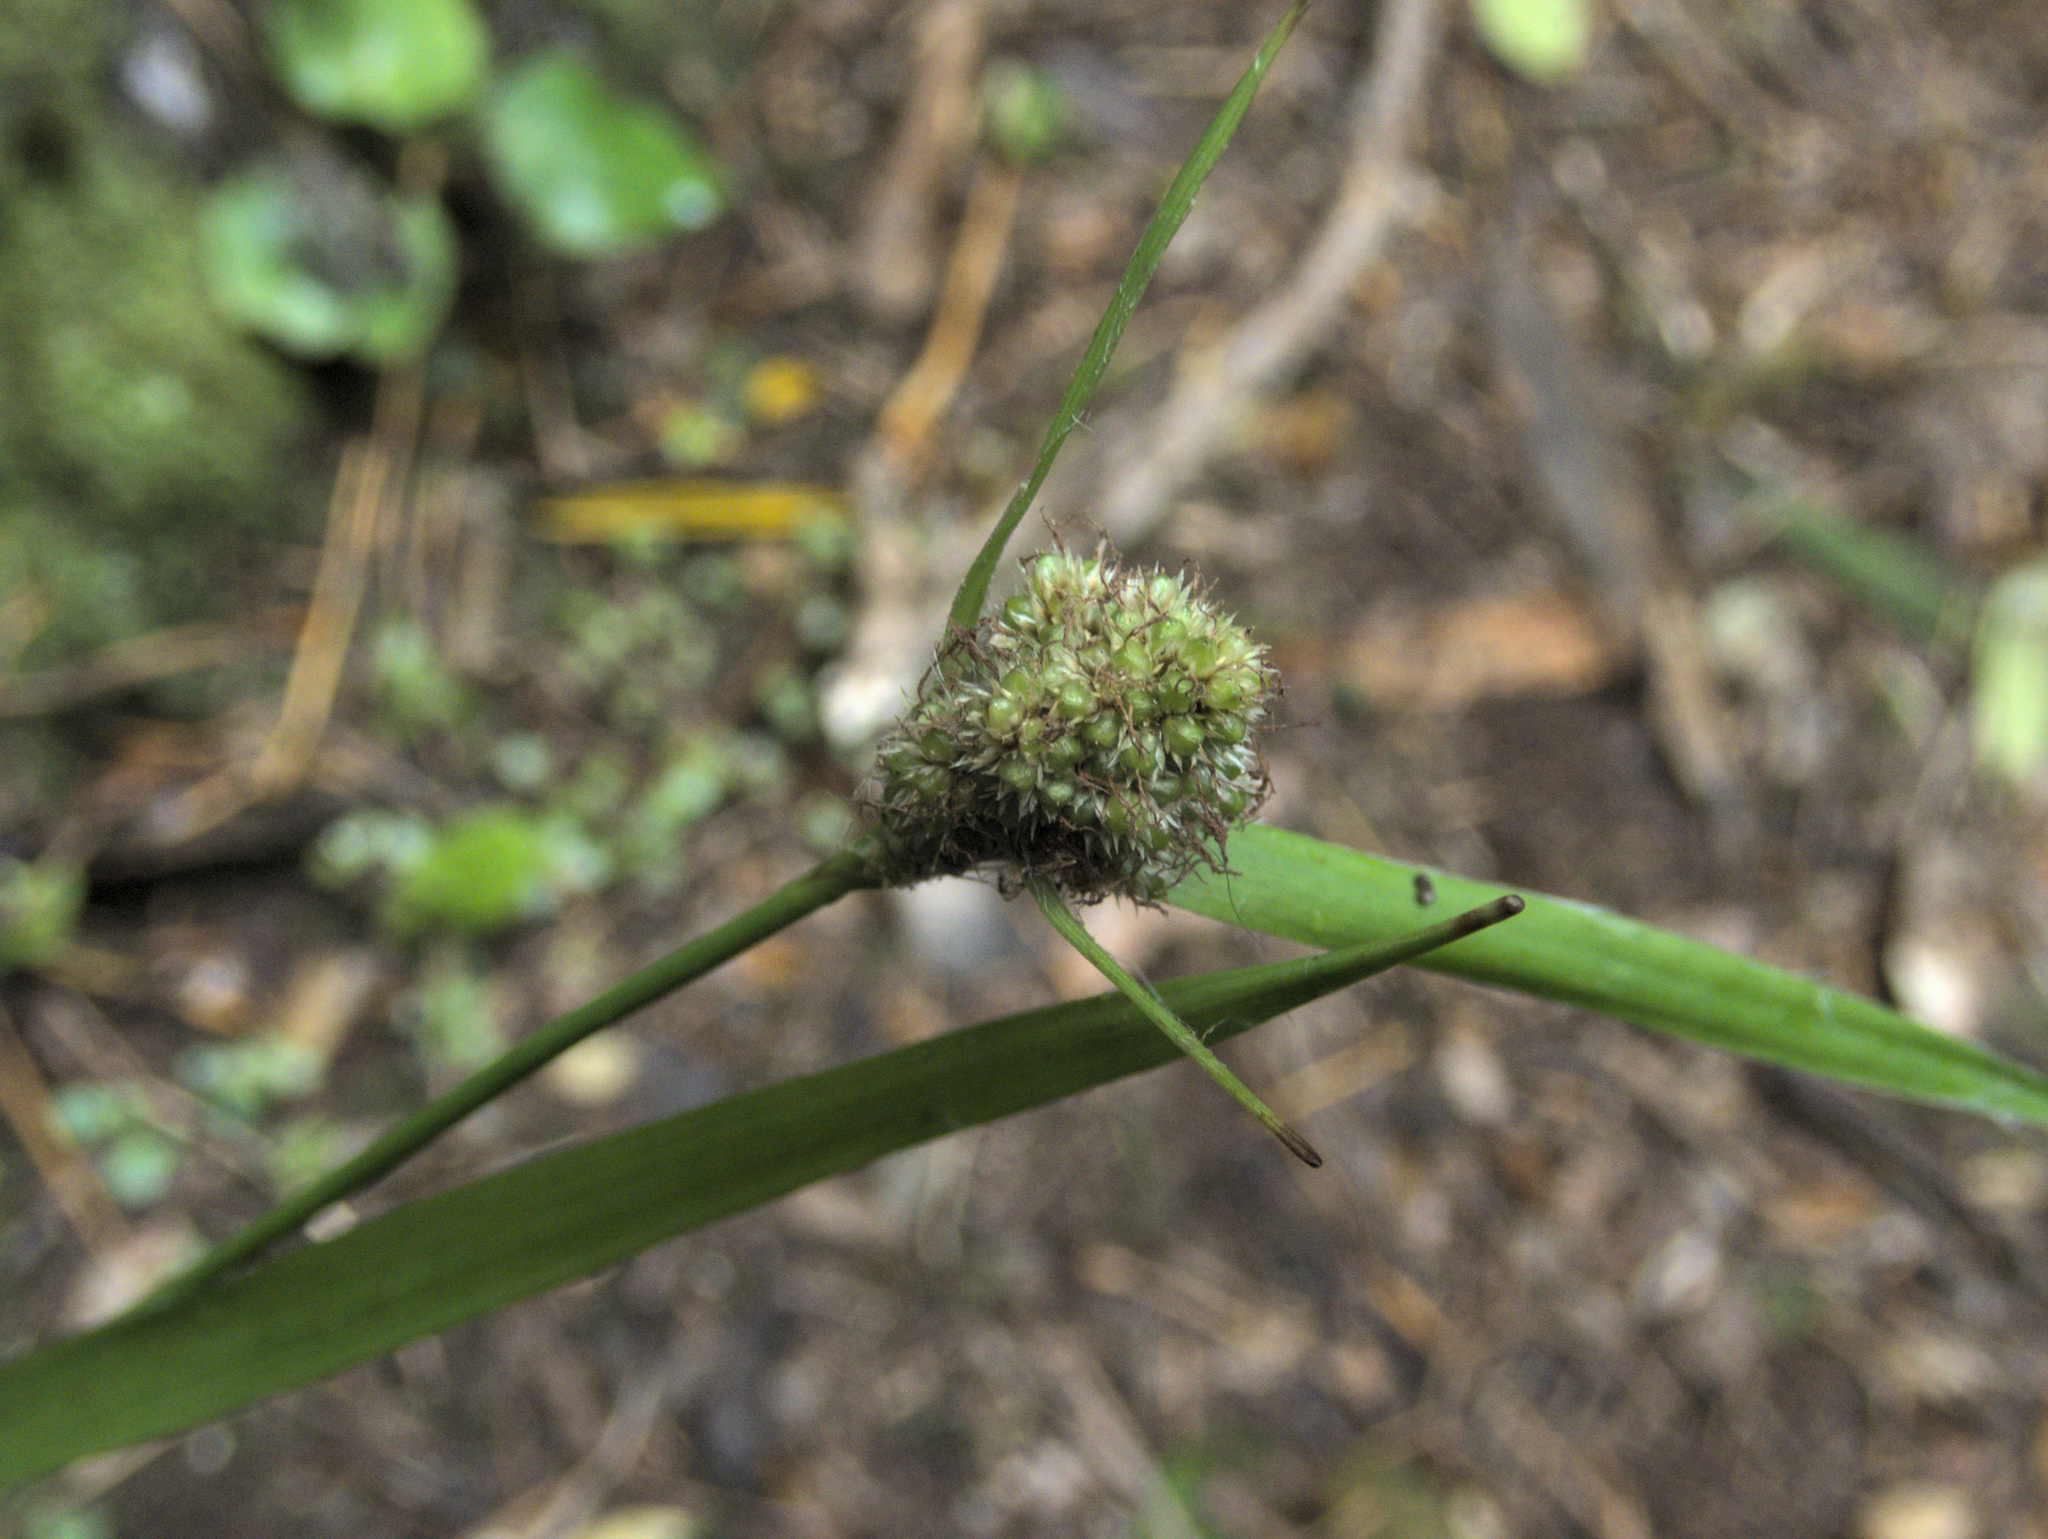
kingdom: Plantae
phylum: Tracheophyta
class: Liliopsida
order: Poales
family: Juncaceae
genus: Luzula
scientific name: Luzula banksiana
